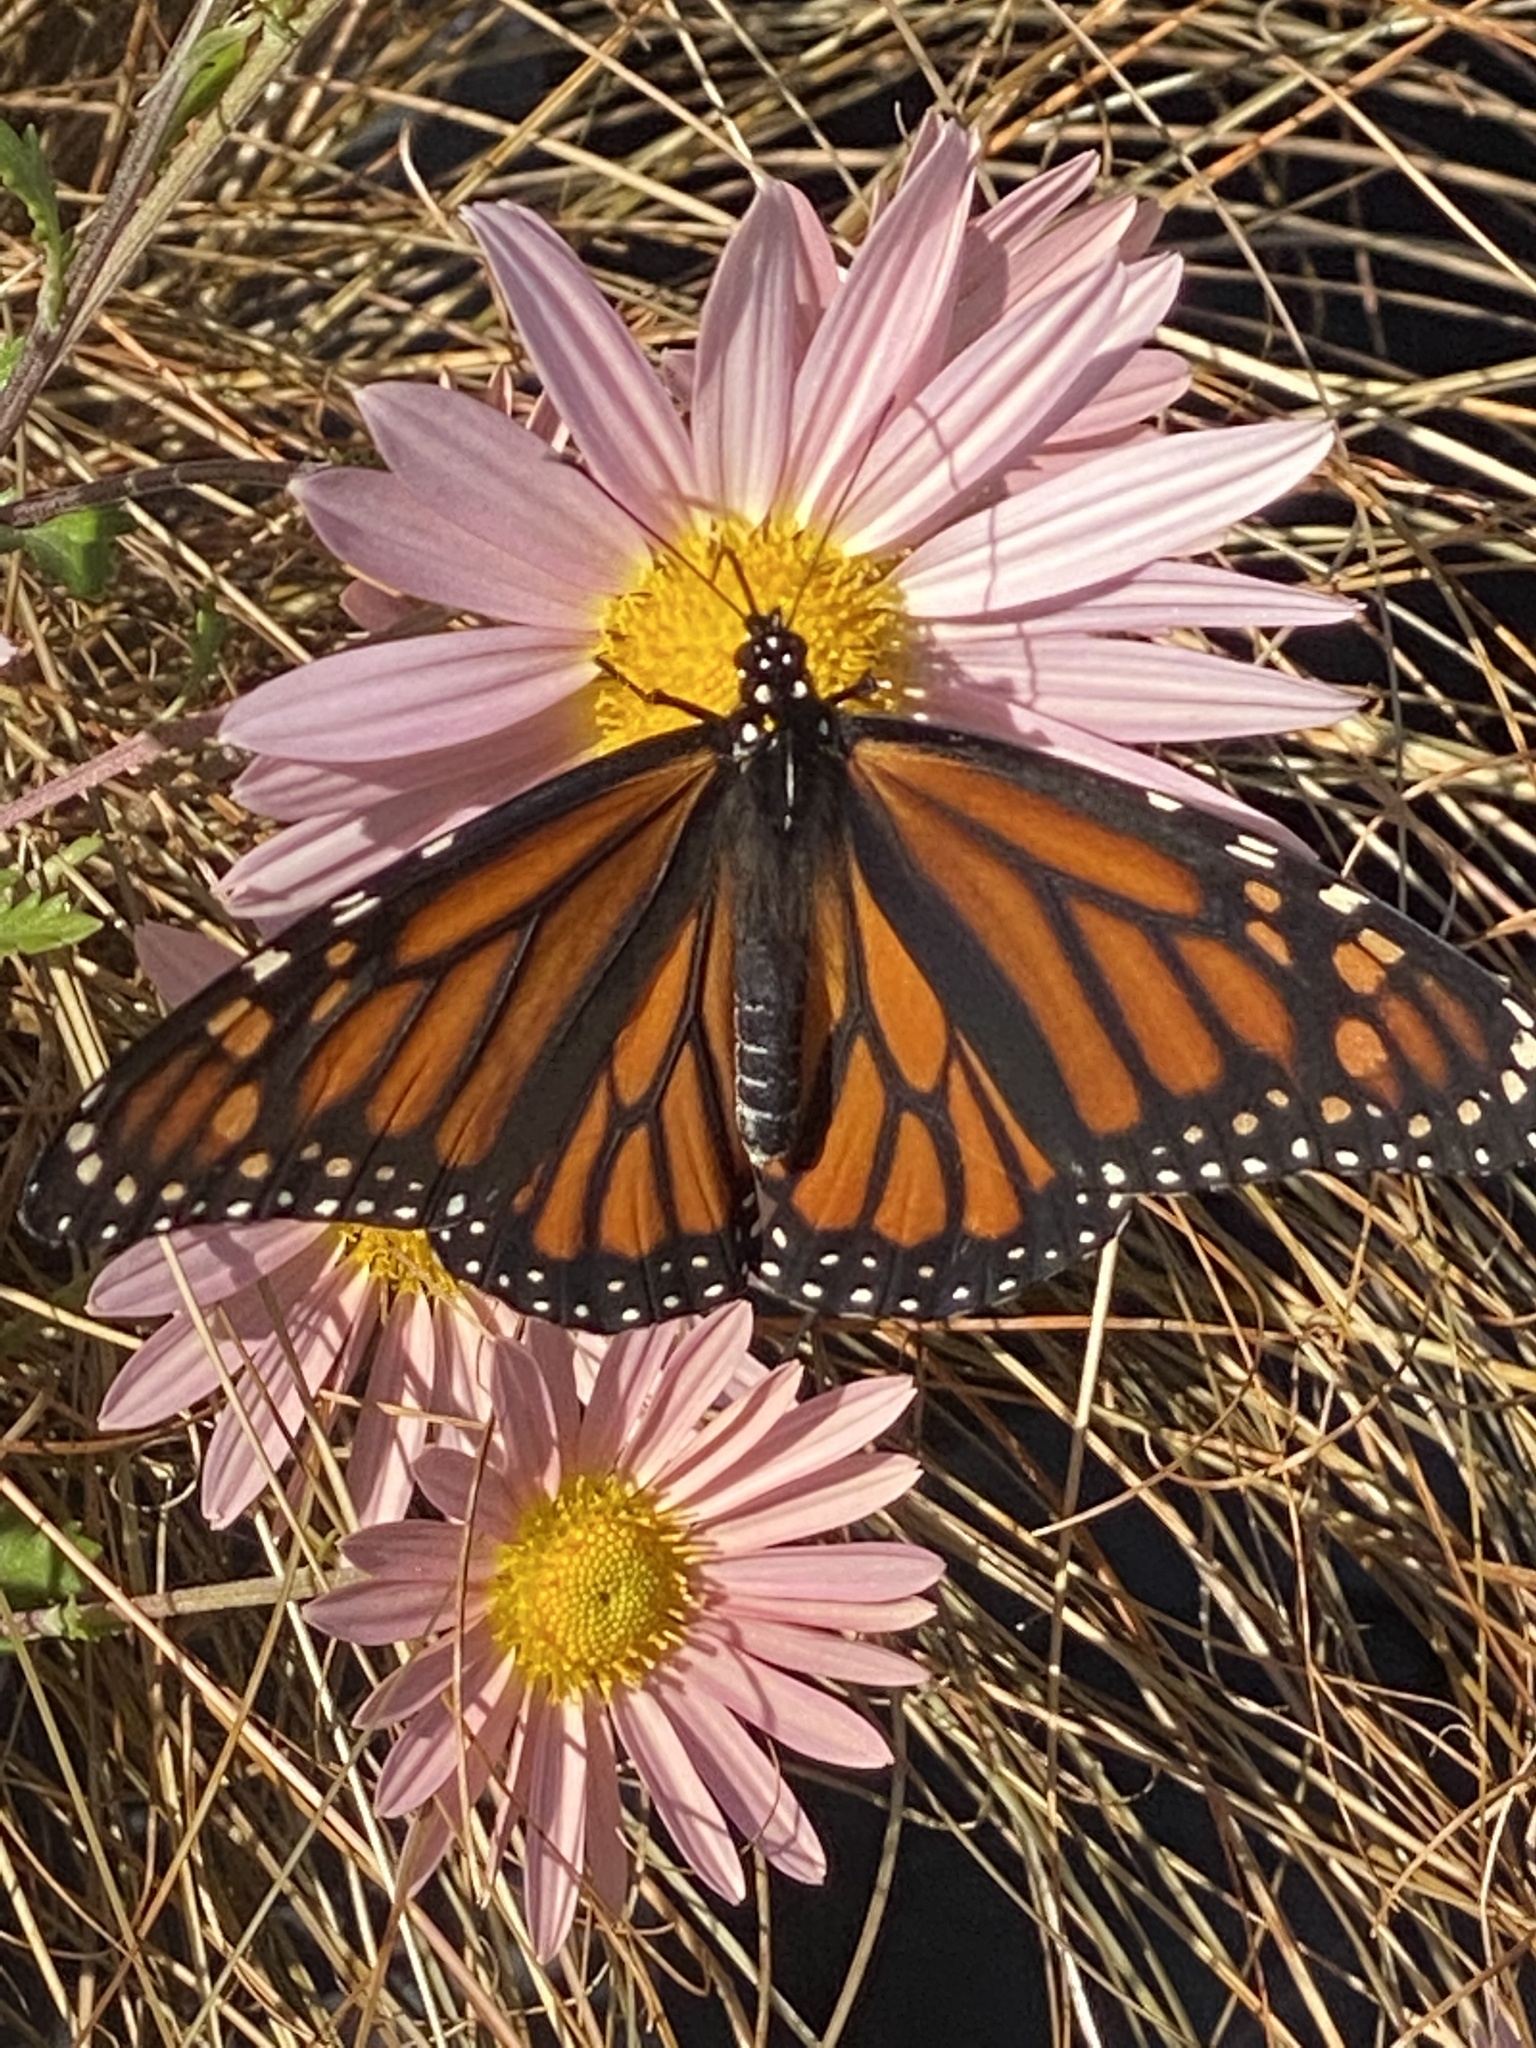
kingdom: Animalia
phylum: Arthropoda
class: Insecta
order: Lepidoptera
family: Nymphalidae
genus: Danaus
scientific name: Danaus plexippus
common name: Monarch
